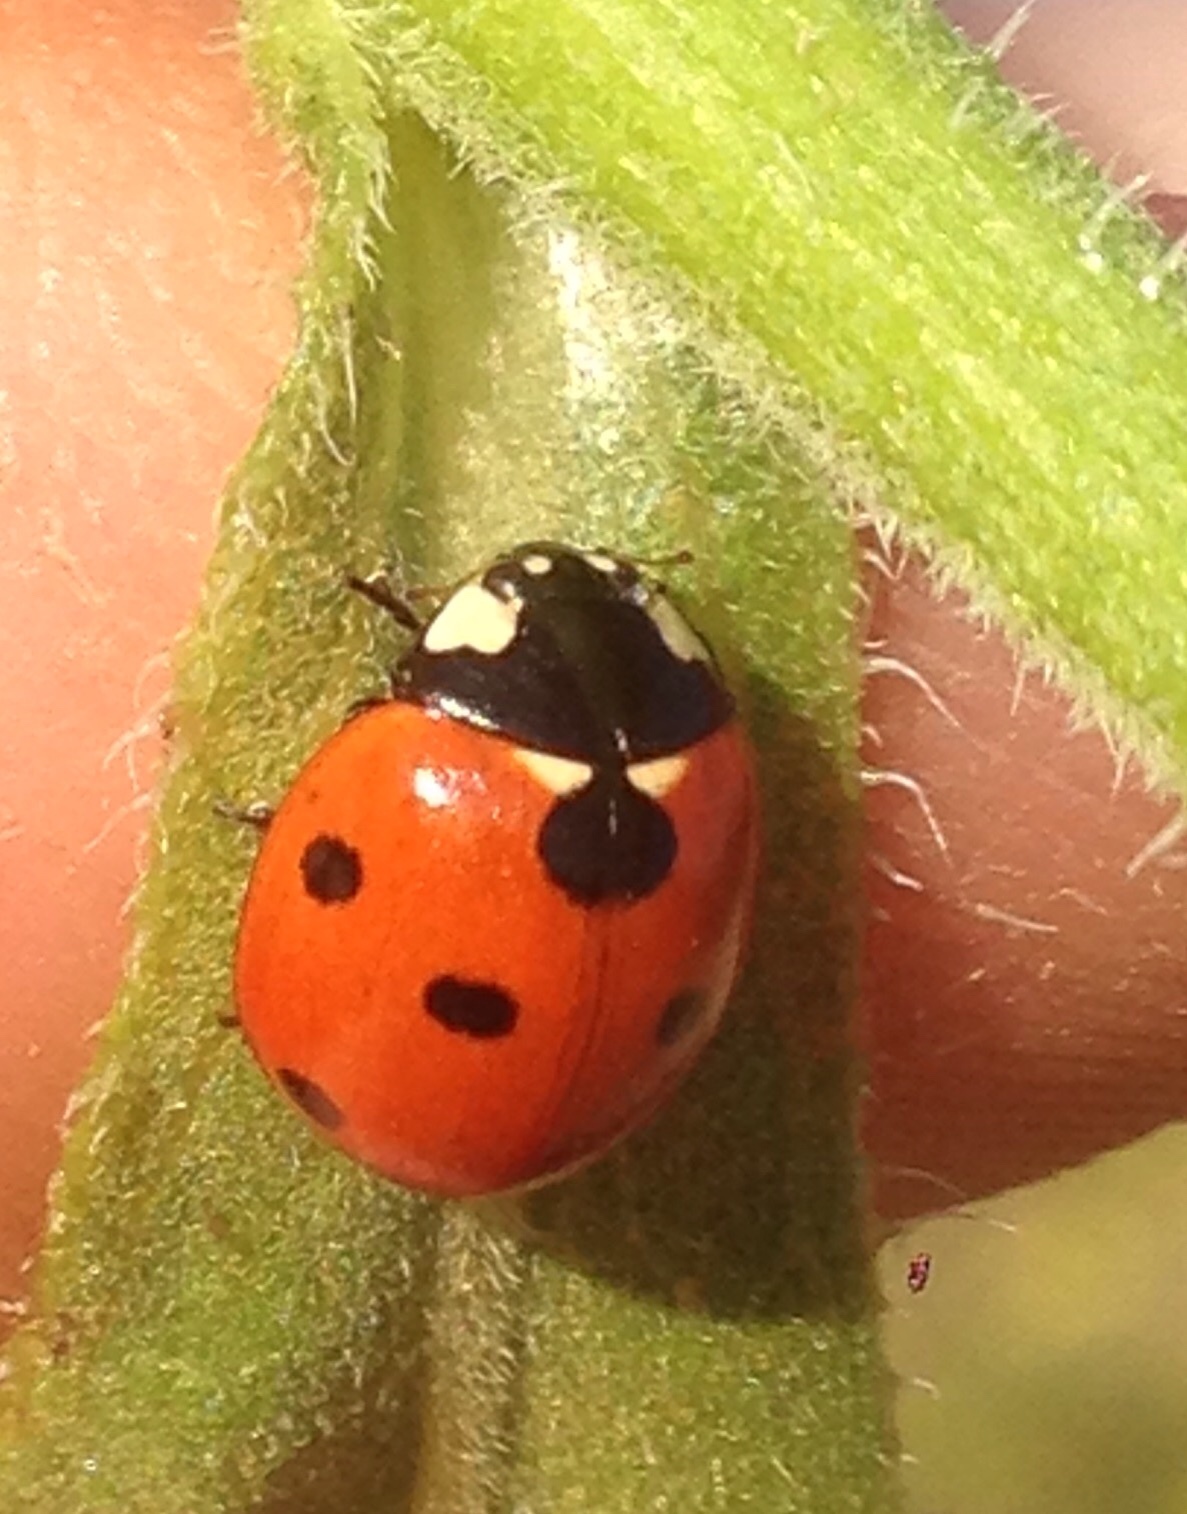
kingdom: Animalia
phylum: Arthropoda
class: Insecta
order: Coleoptera
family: Coccinellidae
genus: Coccinella
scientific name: Coccinella septempunctata
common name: Sevenspotted lady beetle
